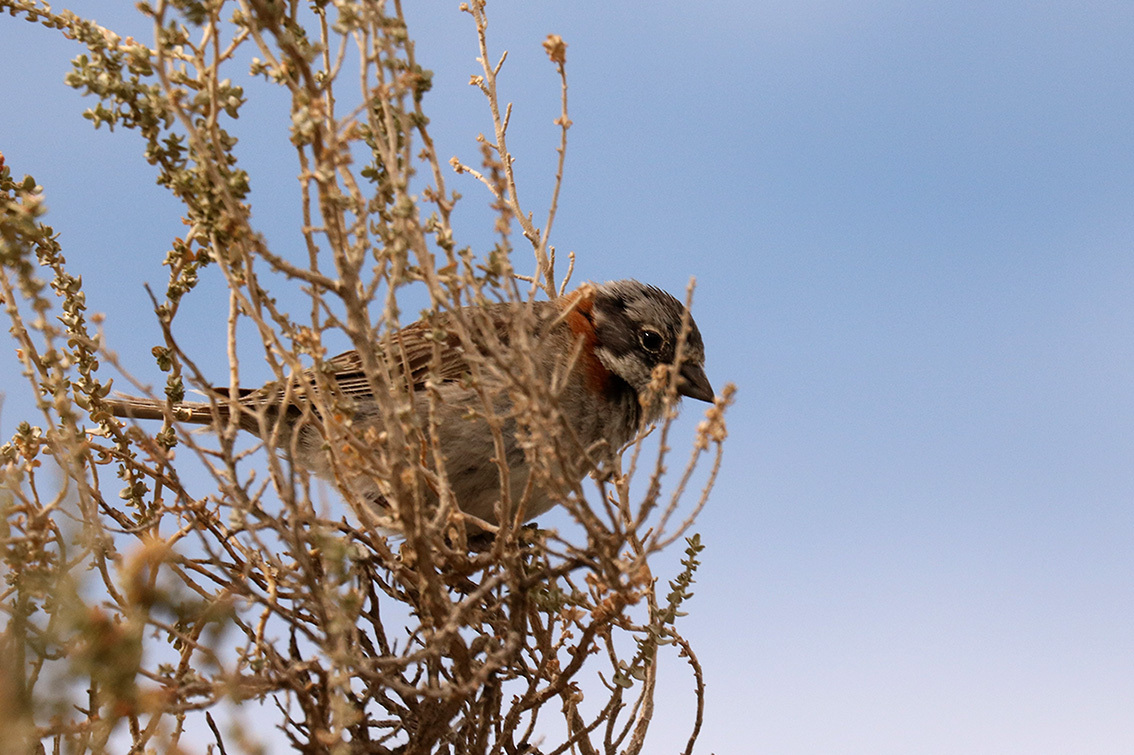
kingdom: Animalia
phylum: Chordata
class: Aves
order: Passeriformes
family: Passerellidae
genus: Zonotrichia
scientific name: Zonotrichia capensis
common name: Rufous-collared sparrow
